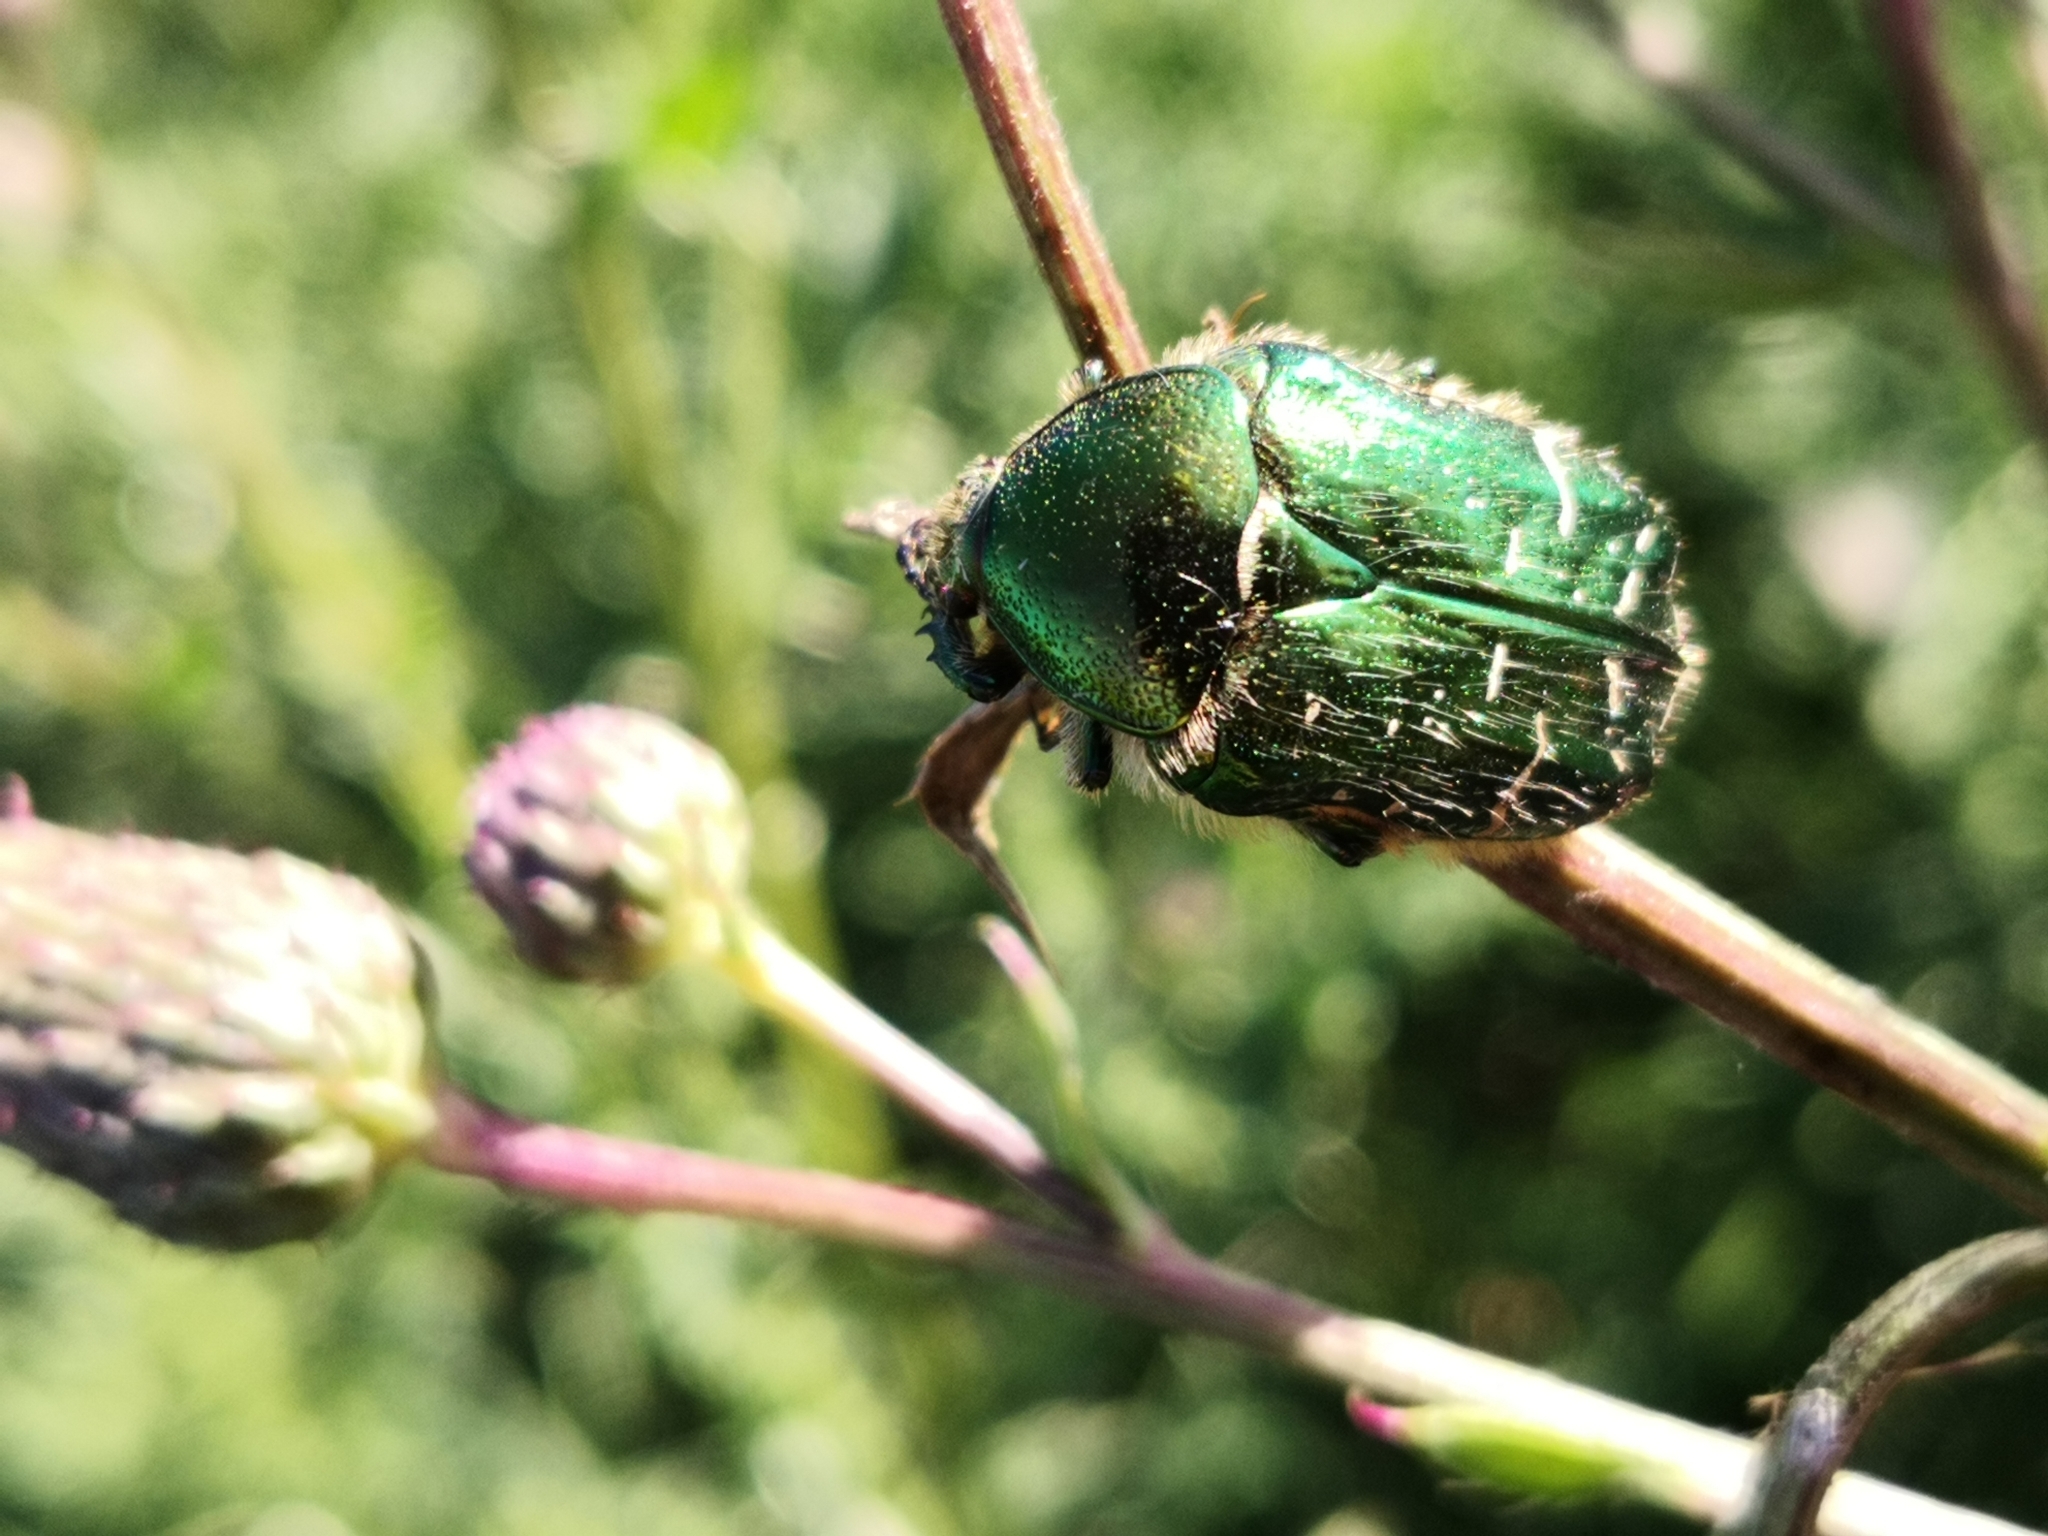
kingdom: Animalia
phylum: Arthropoda
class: Insecta
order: Coleoptera
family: Scarabaeidae
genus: Cetonia
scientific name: Cetonia aurata
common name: Rose chafer
